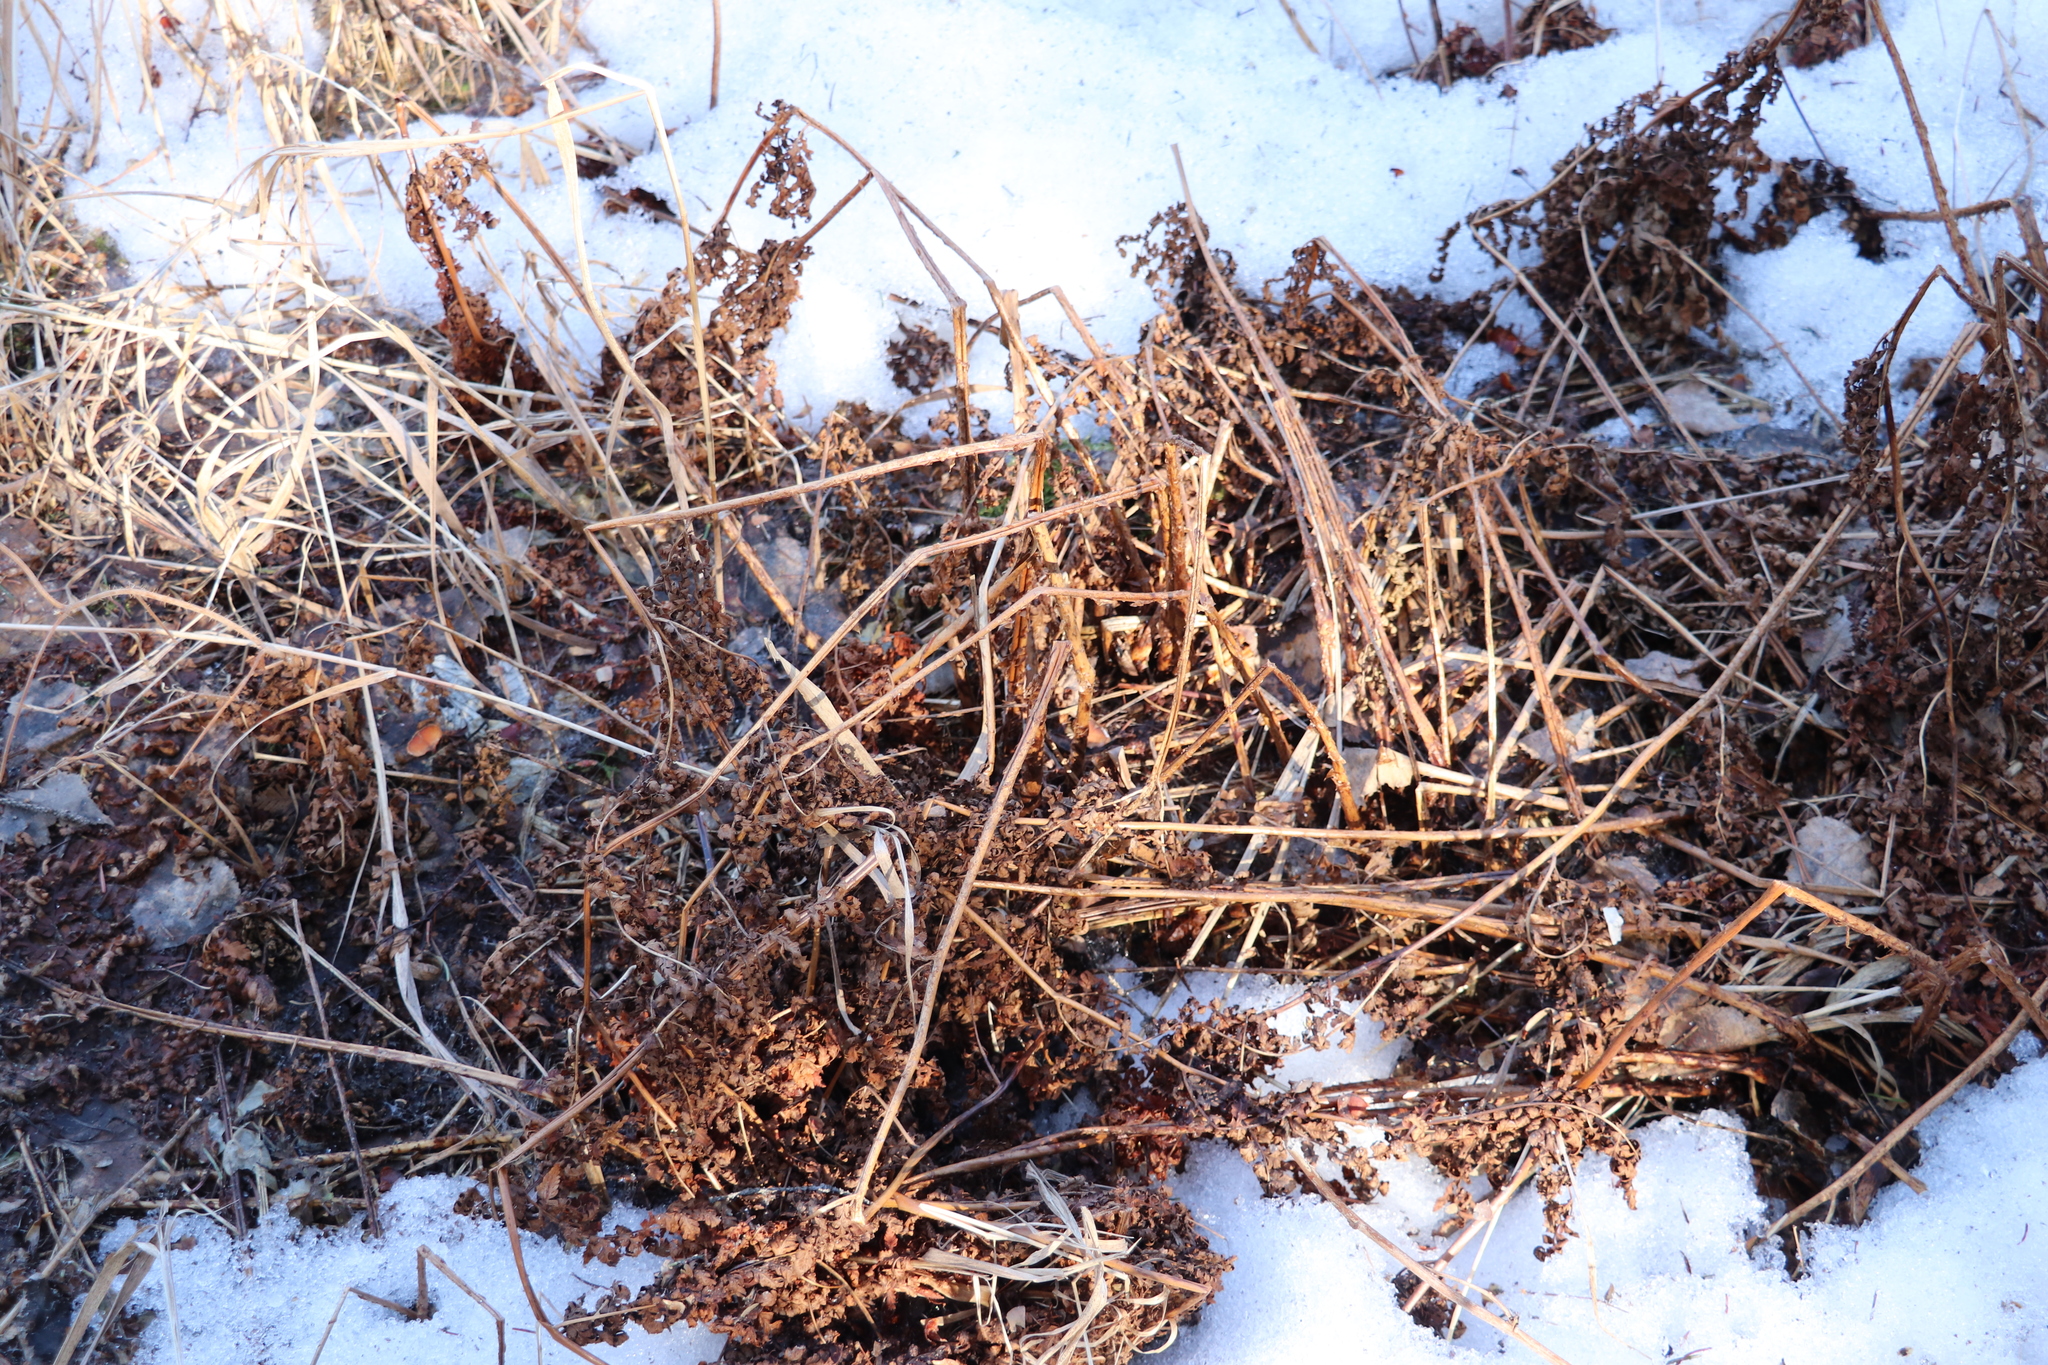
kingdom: Plantae
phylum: Tracheophyta
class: Polypodiopsida
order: Polypodiales
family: Athyriaceae
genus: Athyrium
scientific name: Athyrium filix-femina
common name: Lady fern
